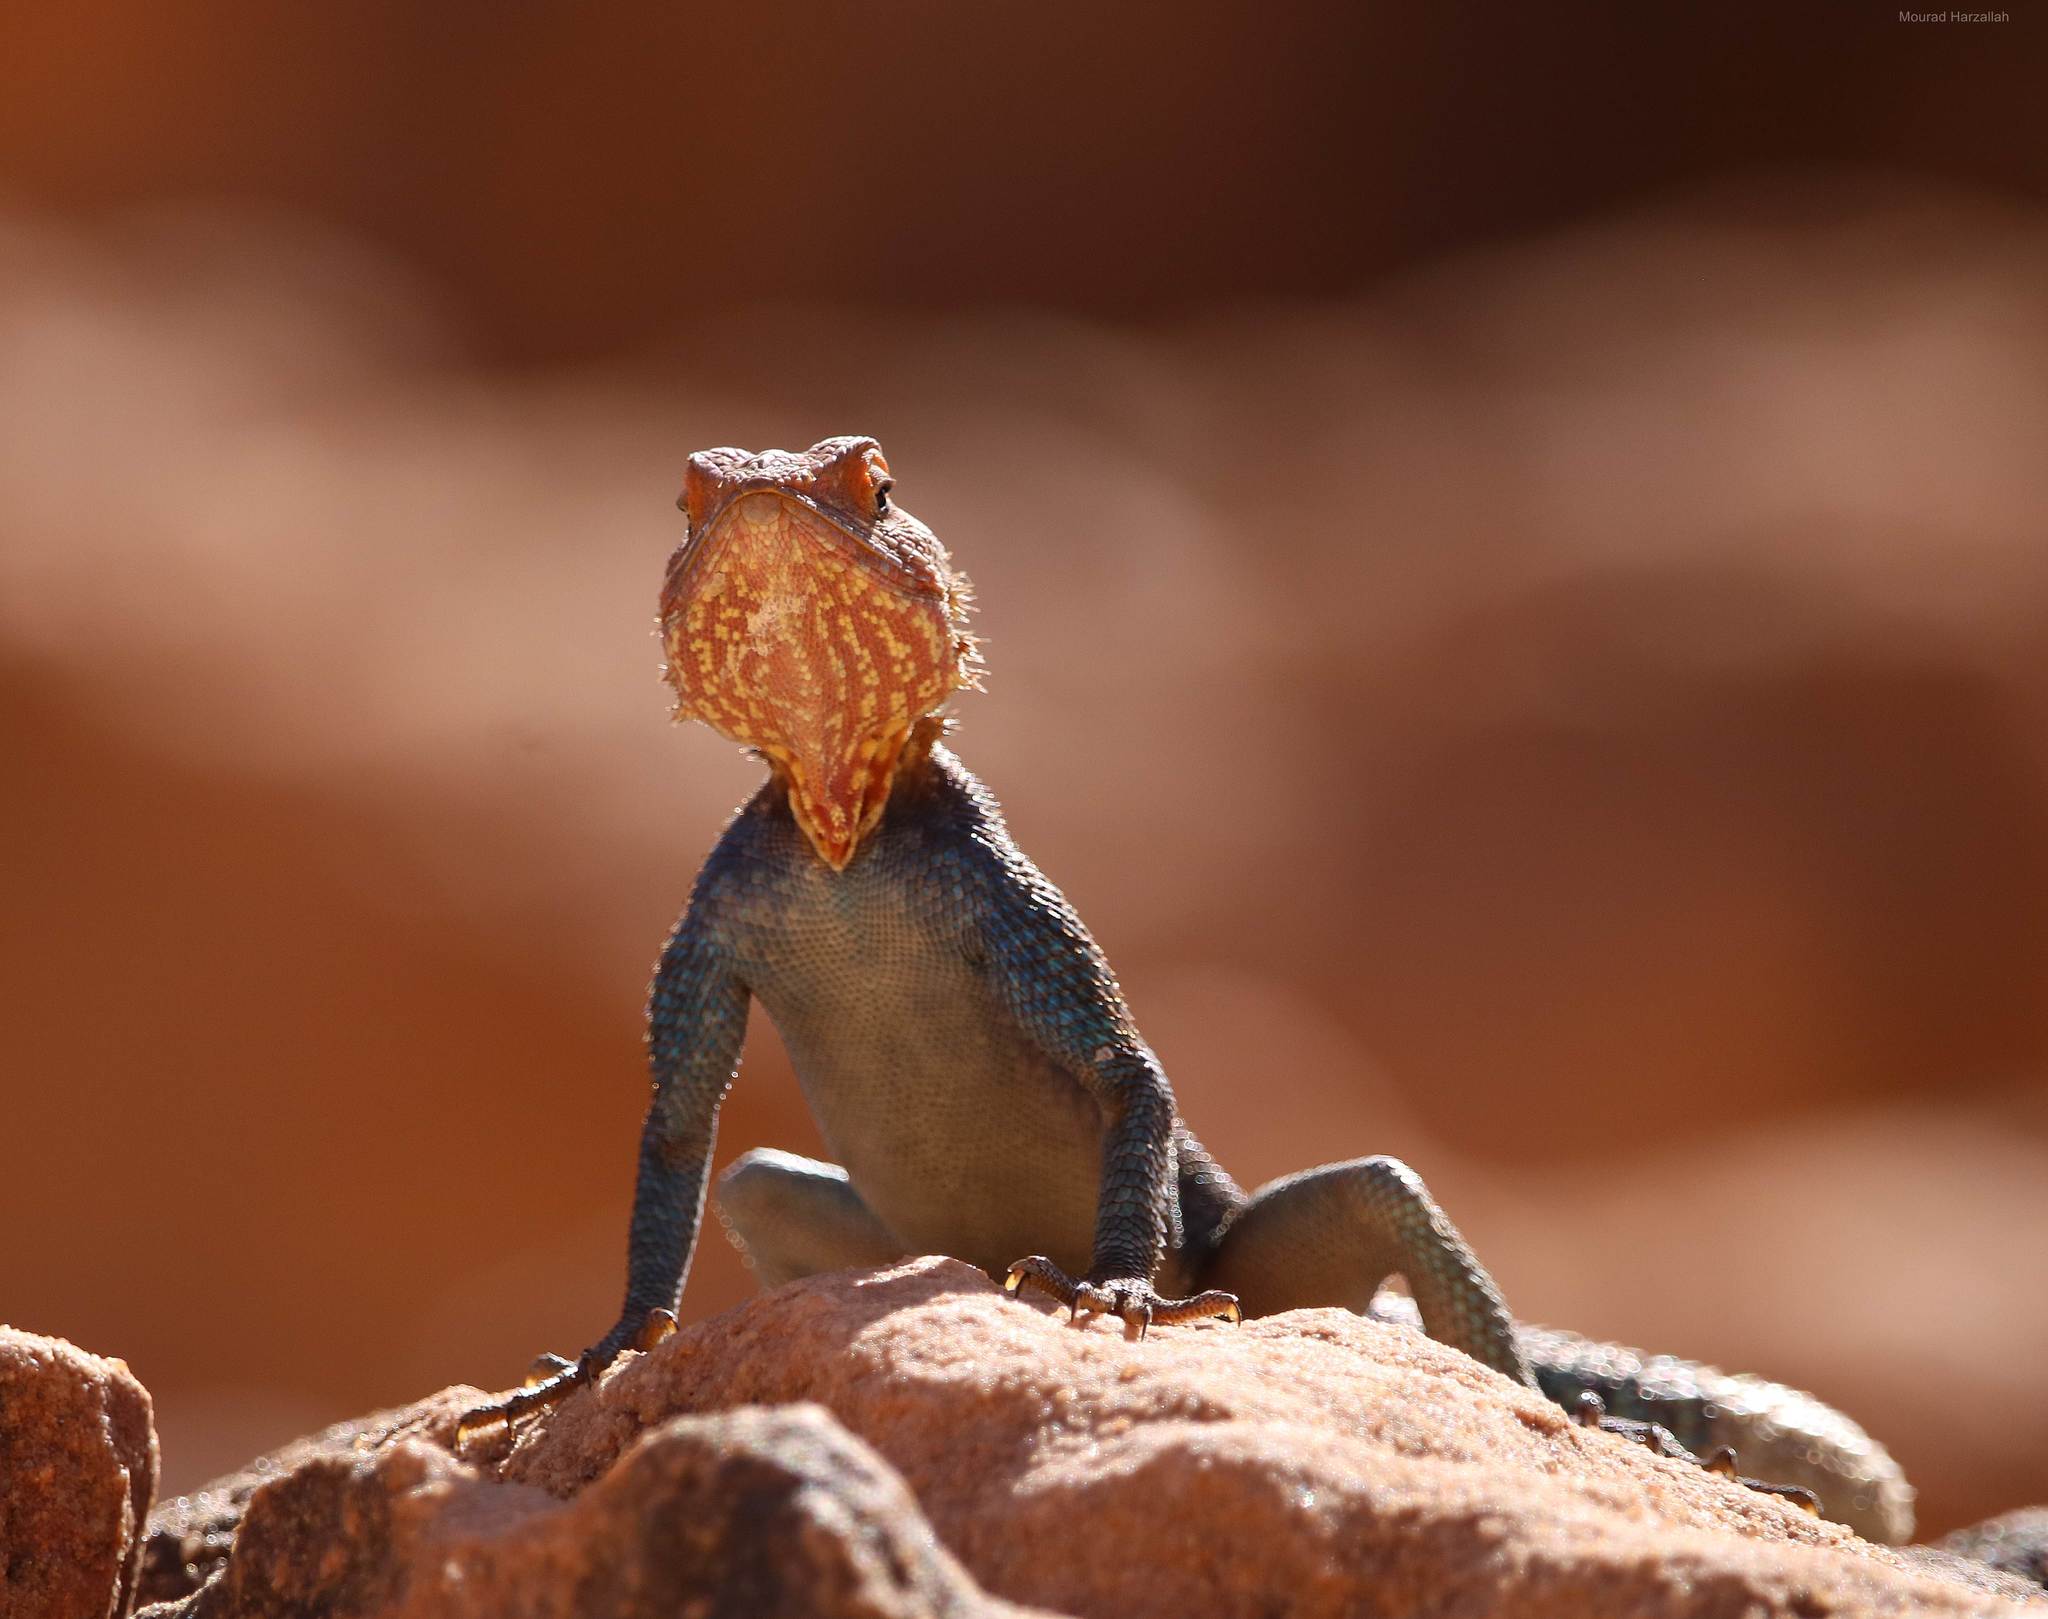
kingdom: Animalia
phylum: Chordata
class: Squamata
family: Agamidae
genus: Agama
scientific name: Agama tassiliensis
